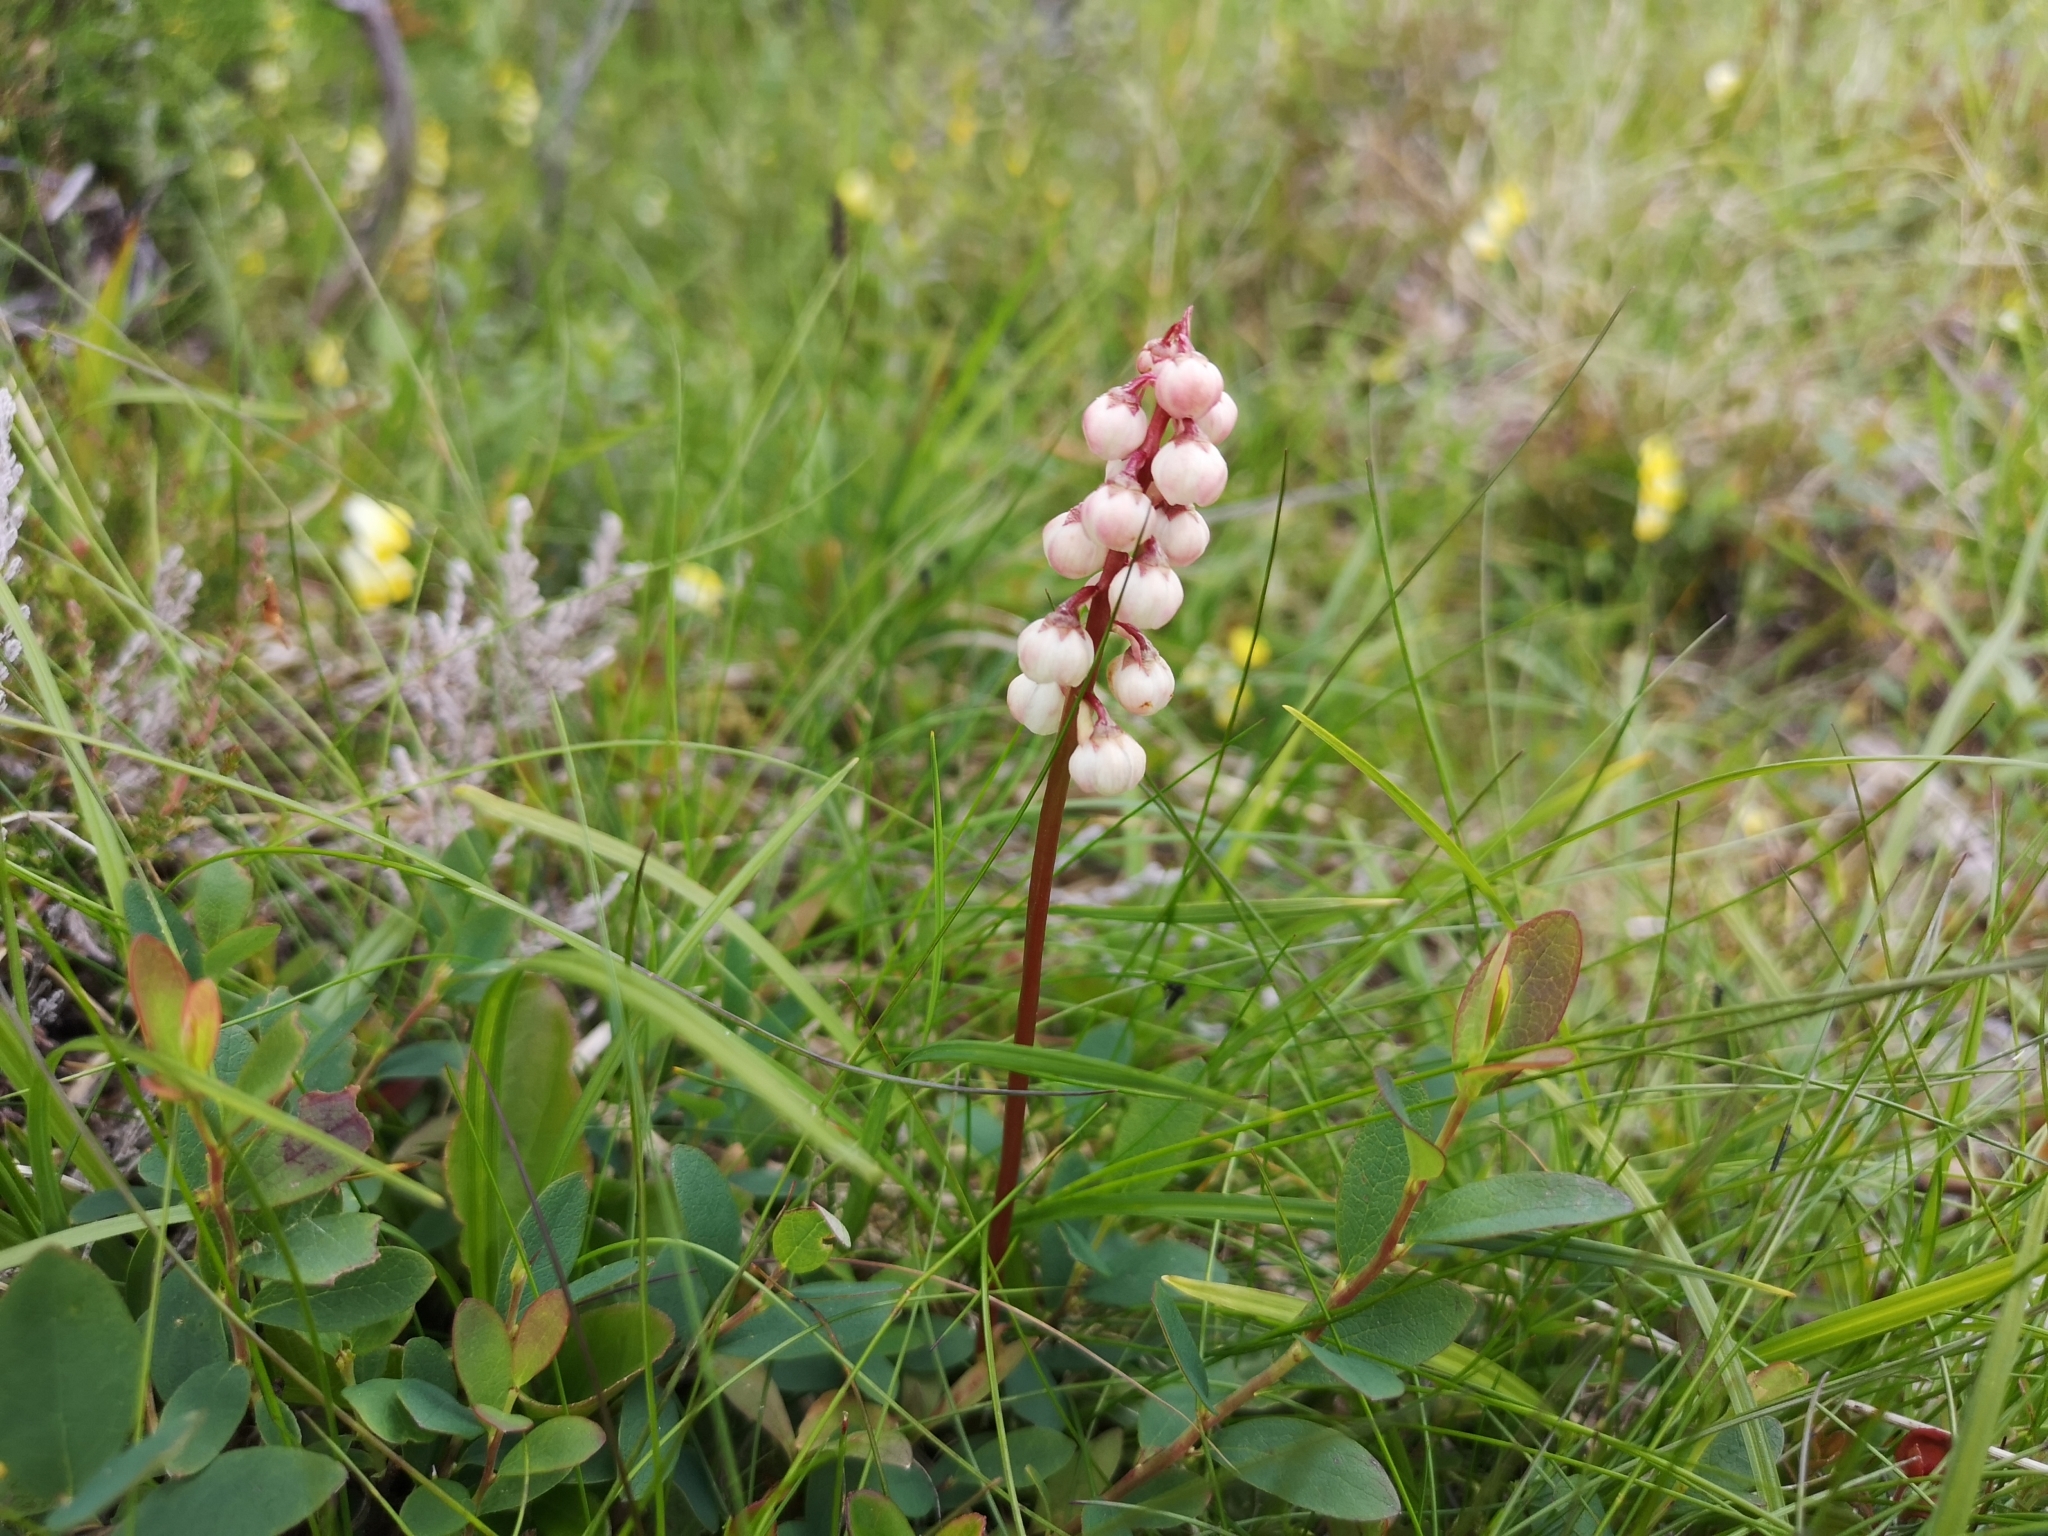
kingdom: Plantae
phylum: Tracheophyta
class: Magnoliopsida
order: Ericales
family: Ericaceae
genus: Pyrola
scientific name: Pyrola minor
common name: Common wintergreen
